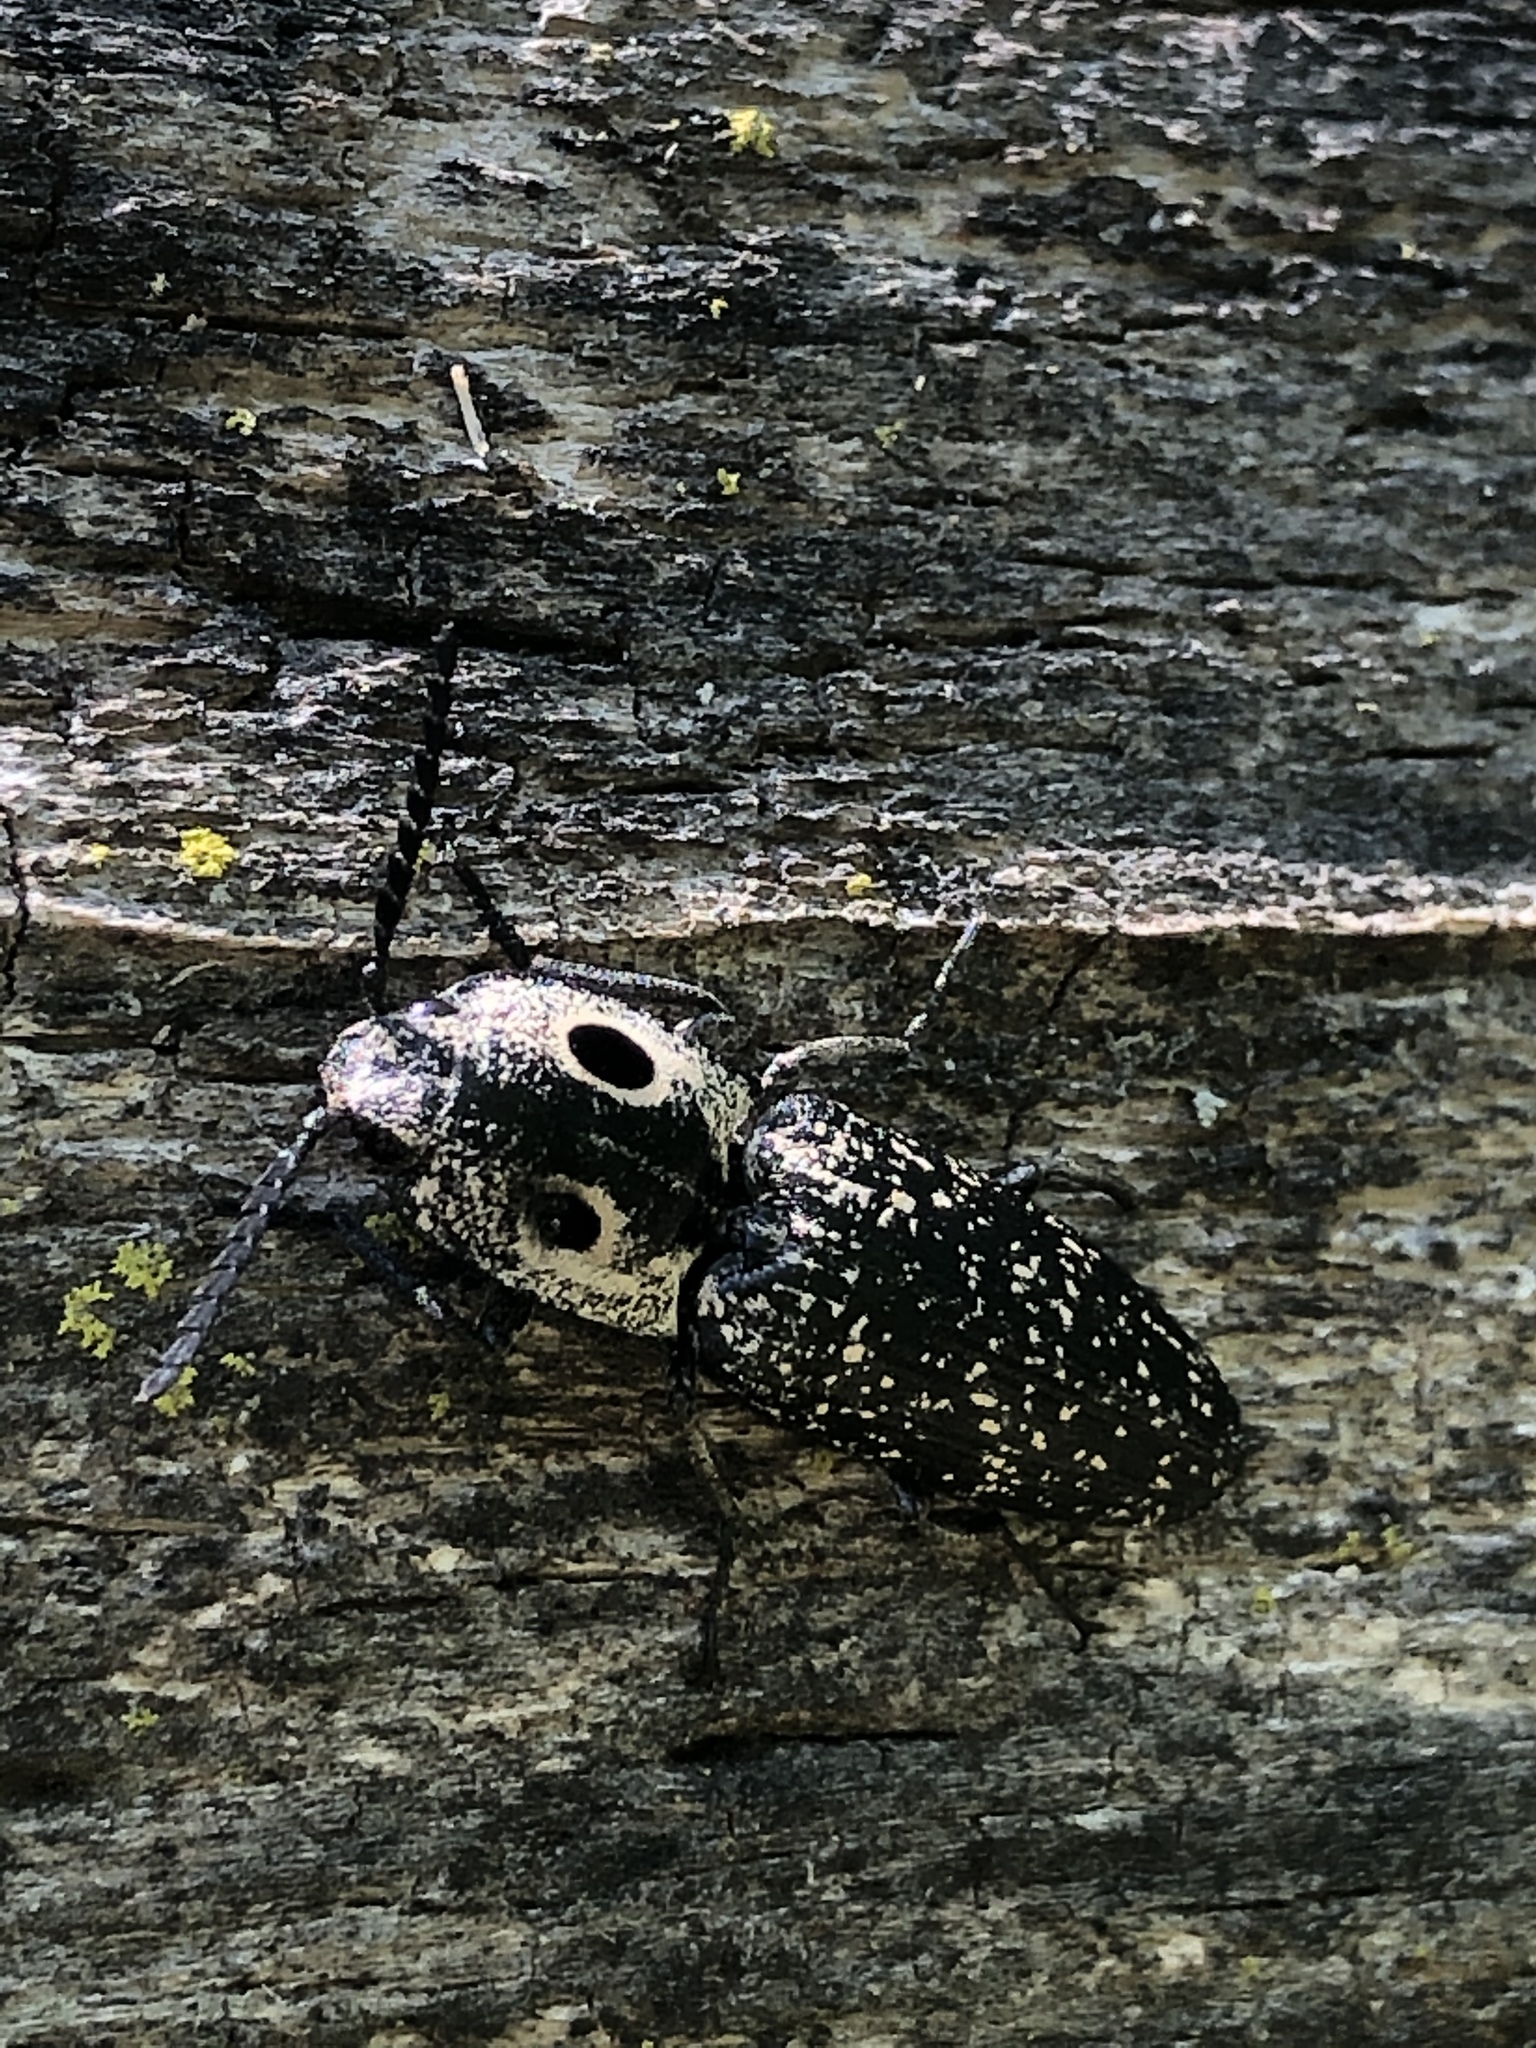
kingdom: Animalia
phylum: Arthropoda
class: Insecta
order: Coleoptera
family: Elateridae
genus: Alaus
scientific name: Alaus oculatus
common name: Eastern eyed click beetle
